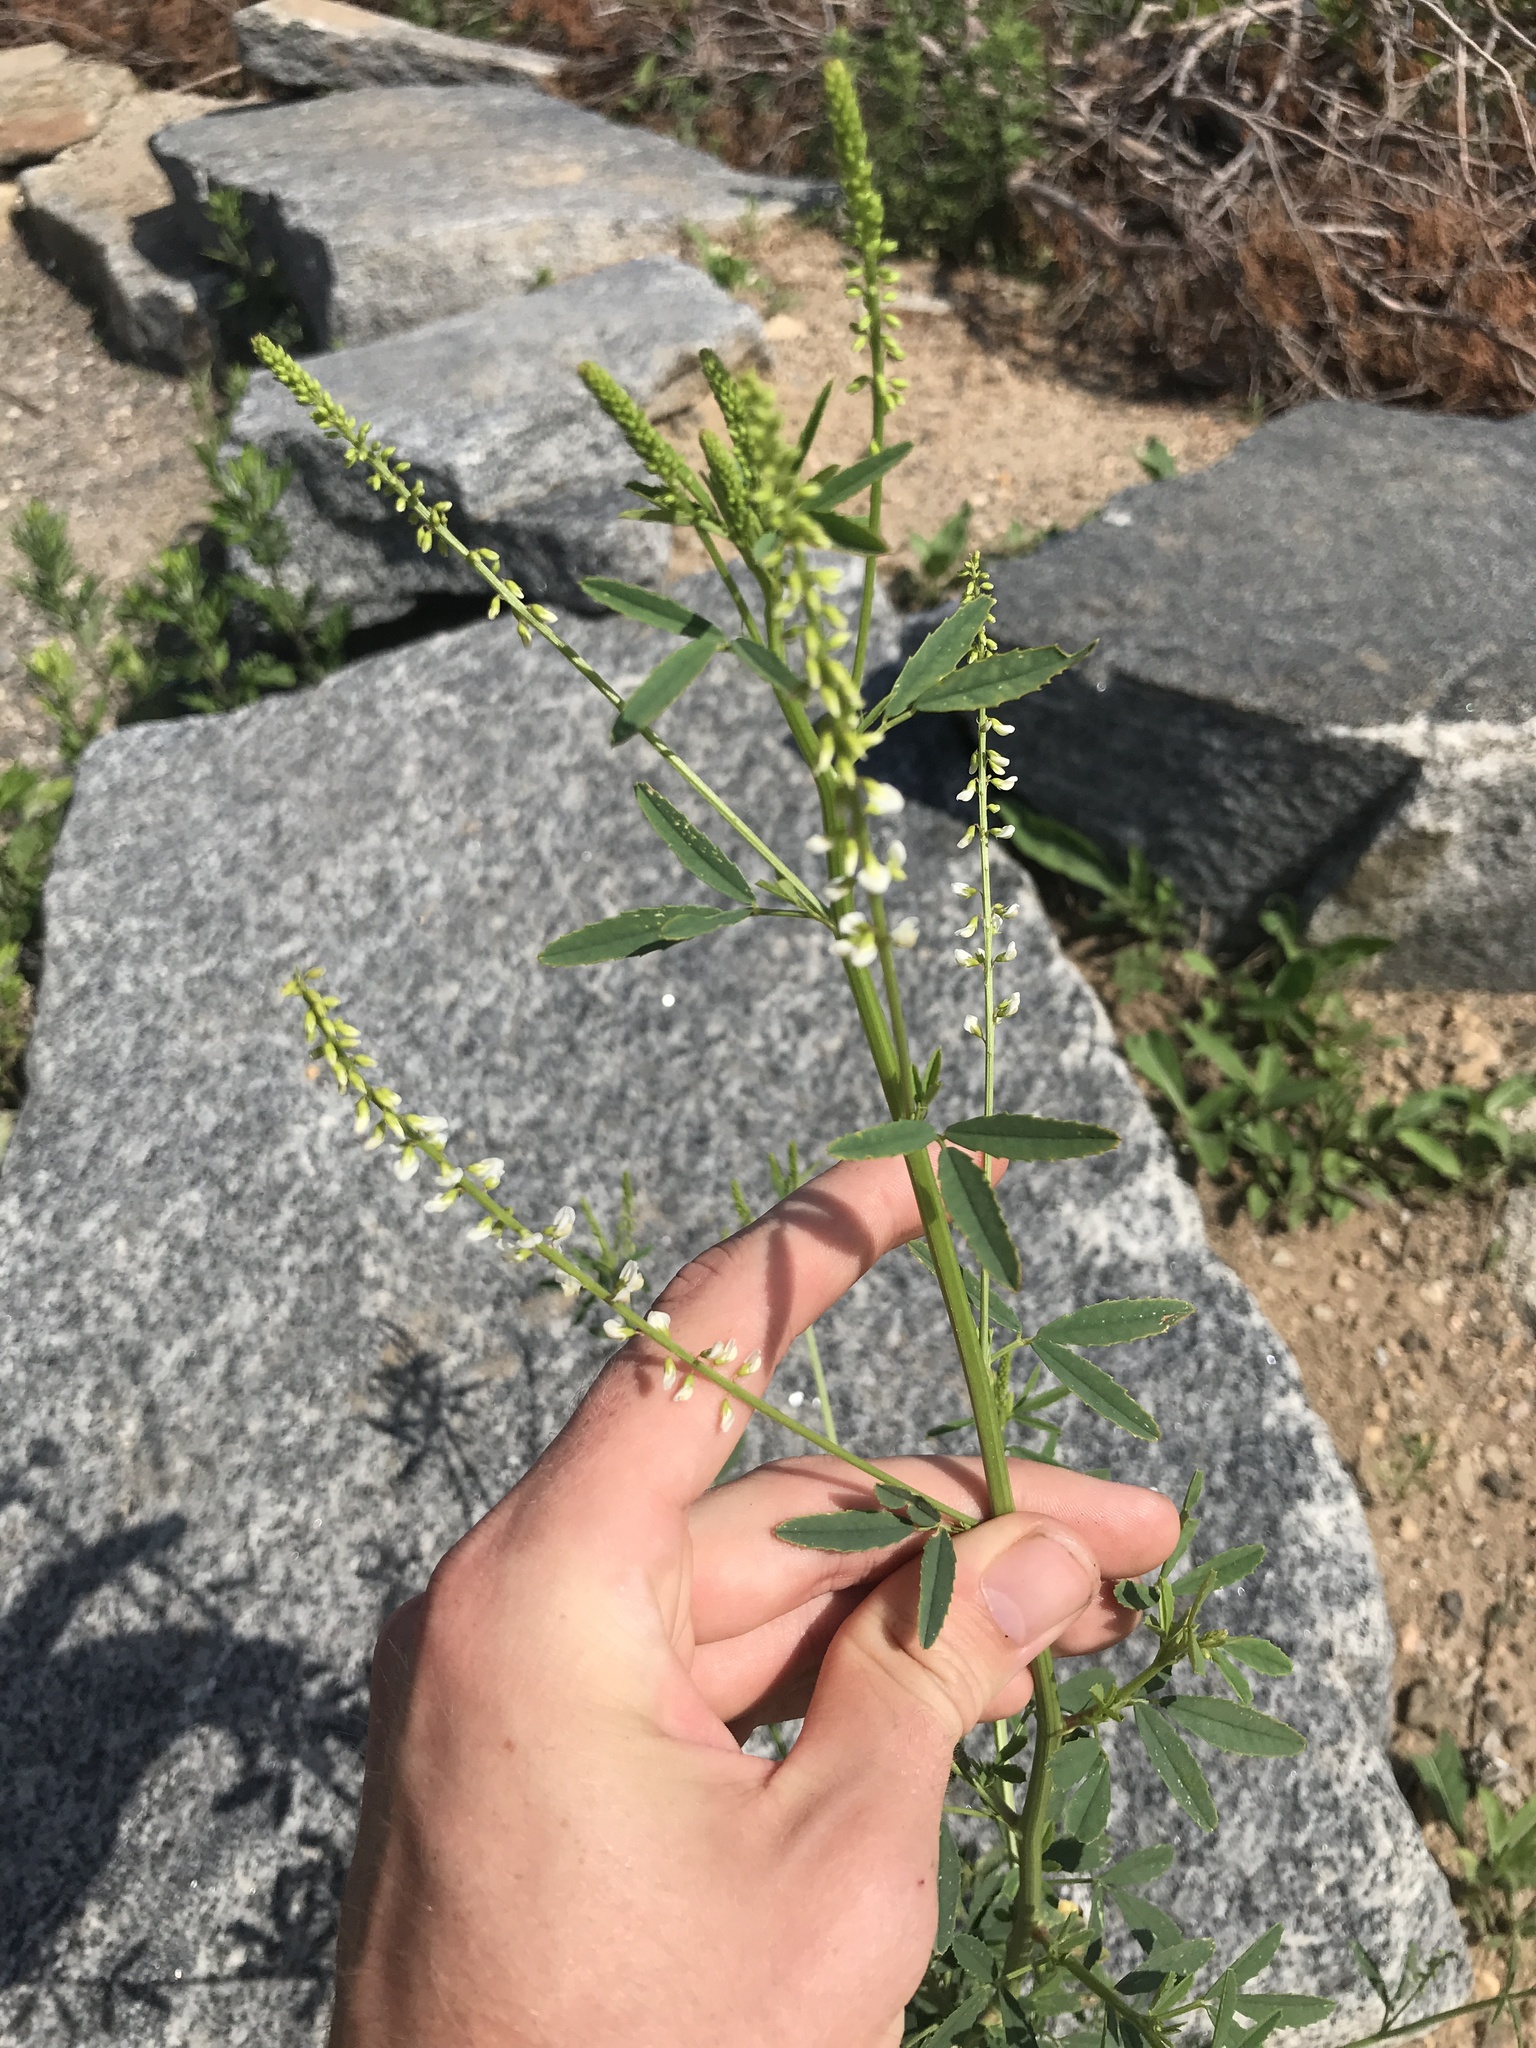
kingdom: Plantae
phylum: Tracheophyta
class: Magnoliopsida
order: Fabales
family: Fabaceae
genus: Melilotus
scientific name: Melilotus albus
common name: White melilot
